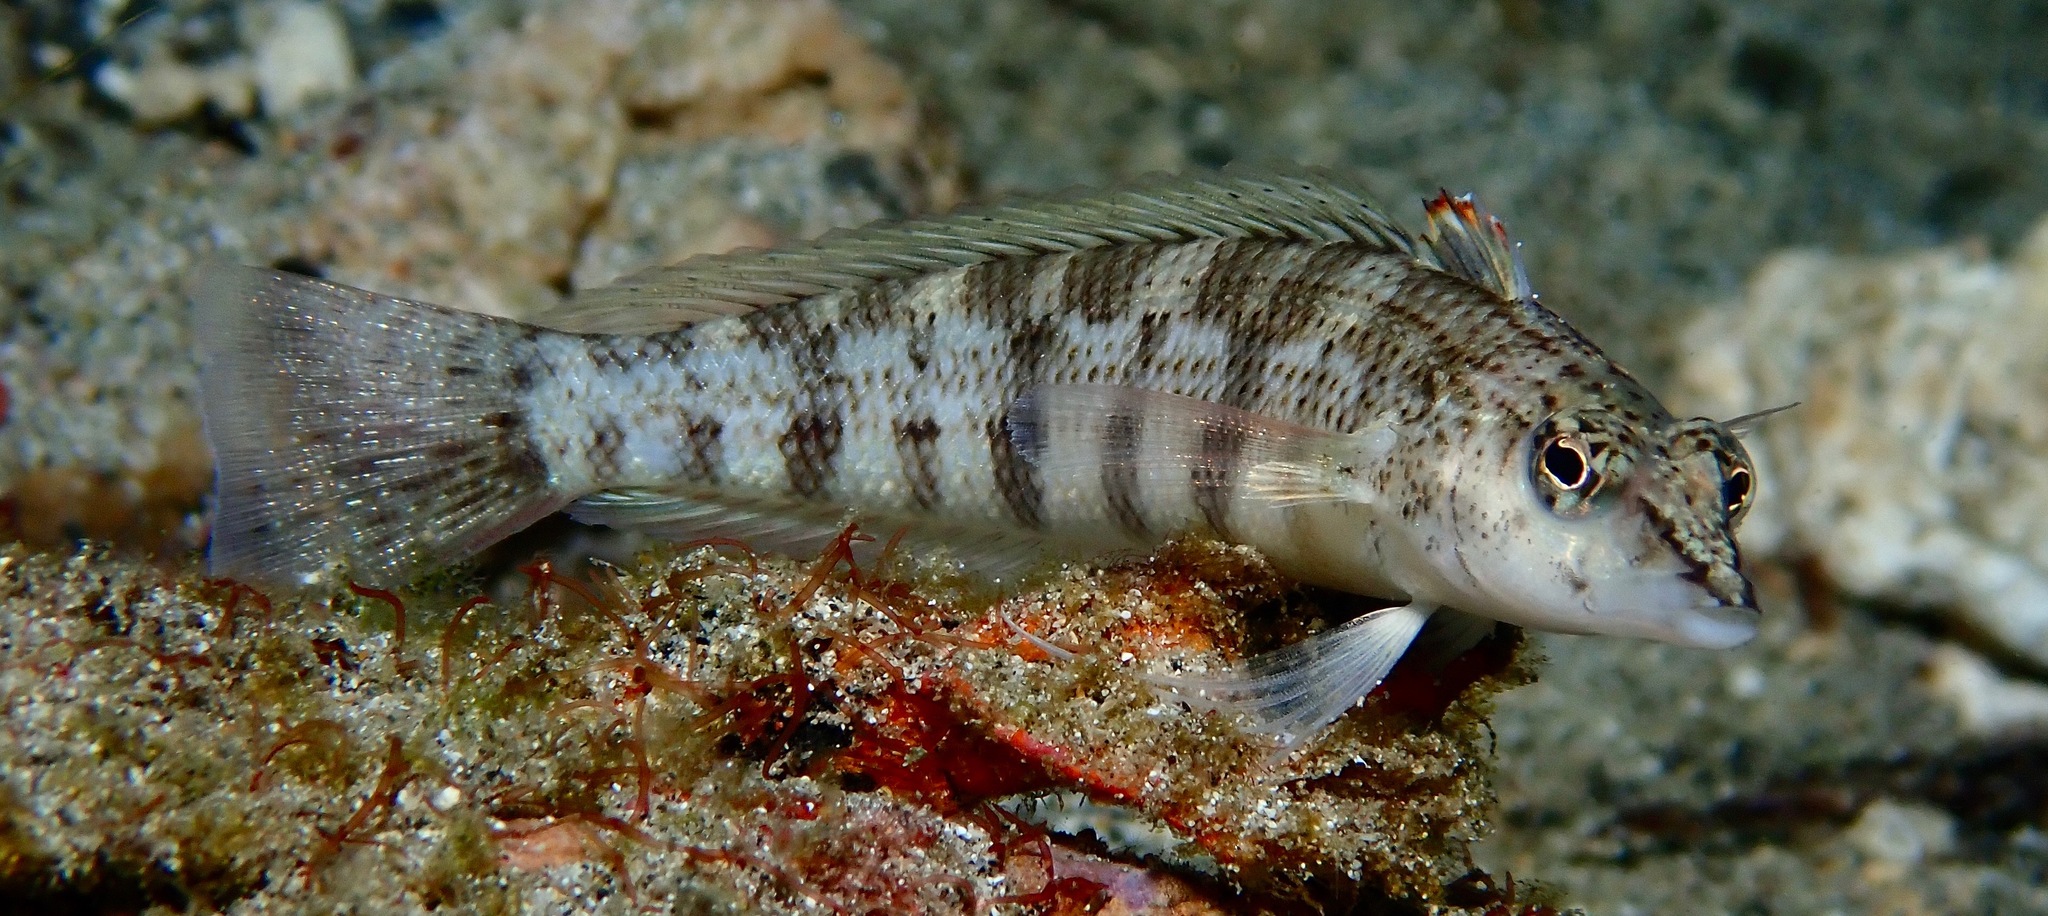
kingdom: Animalia
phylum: Chordata
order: Perciformes
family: Pinguipedidae
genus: Parapercis
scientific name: Parapercis lineopunctata
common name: Nosestripe sandperch
